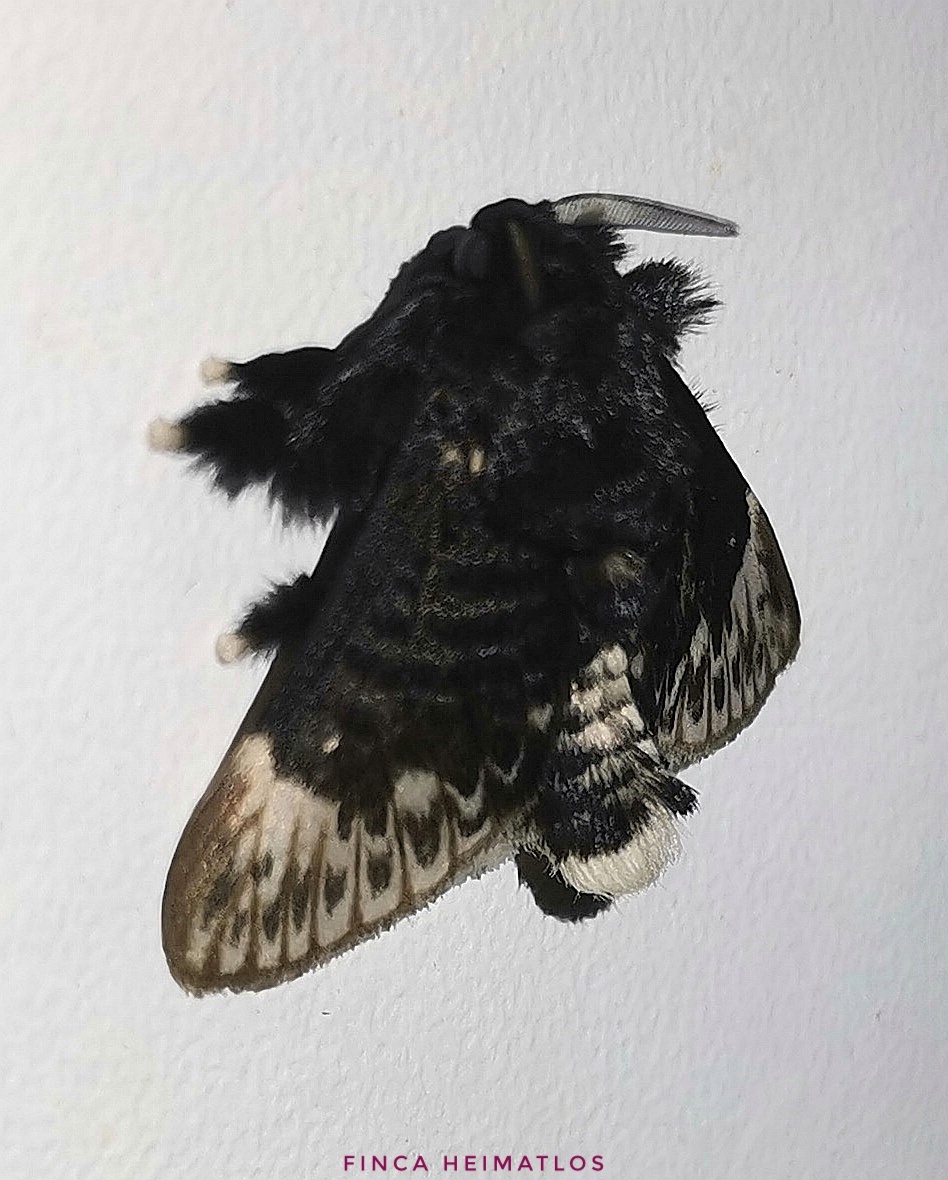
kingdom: Animalia
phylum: Arthropoda
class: Insecta
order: Lepidoptera
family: Megalopygidae
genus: Podalia
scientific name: Podalia thanatos
